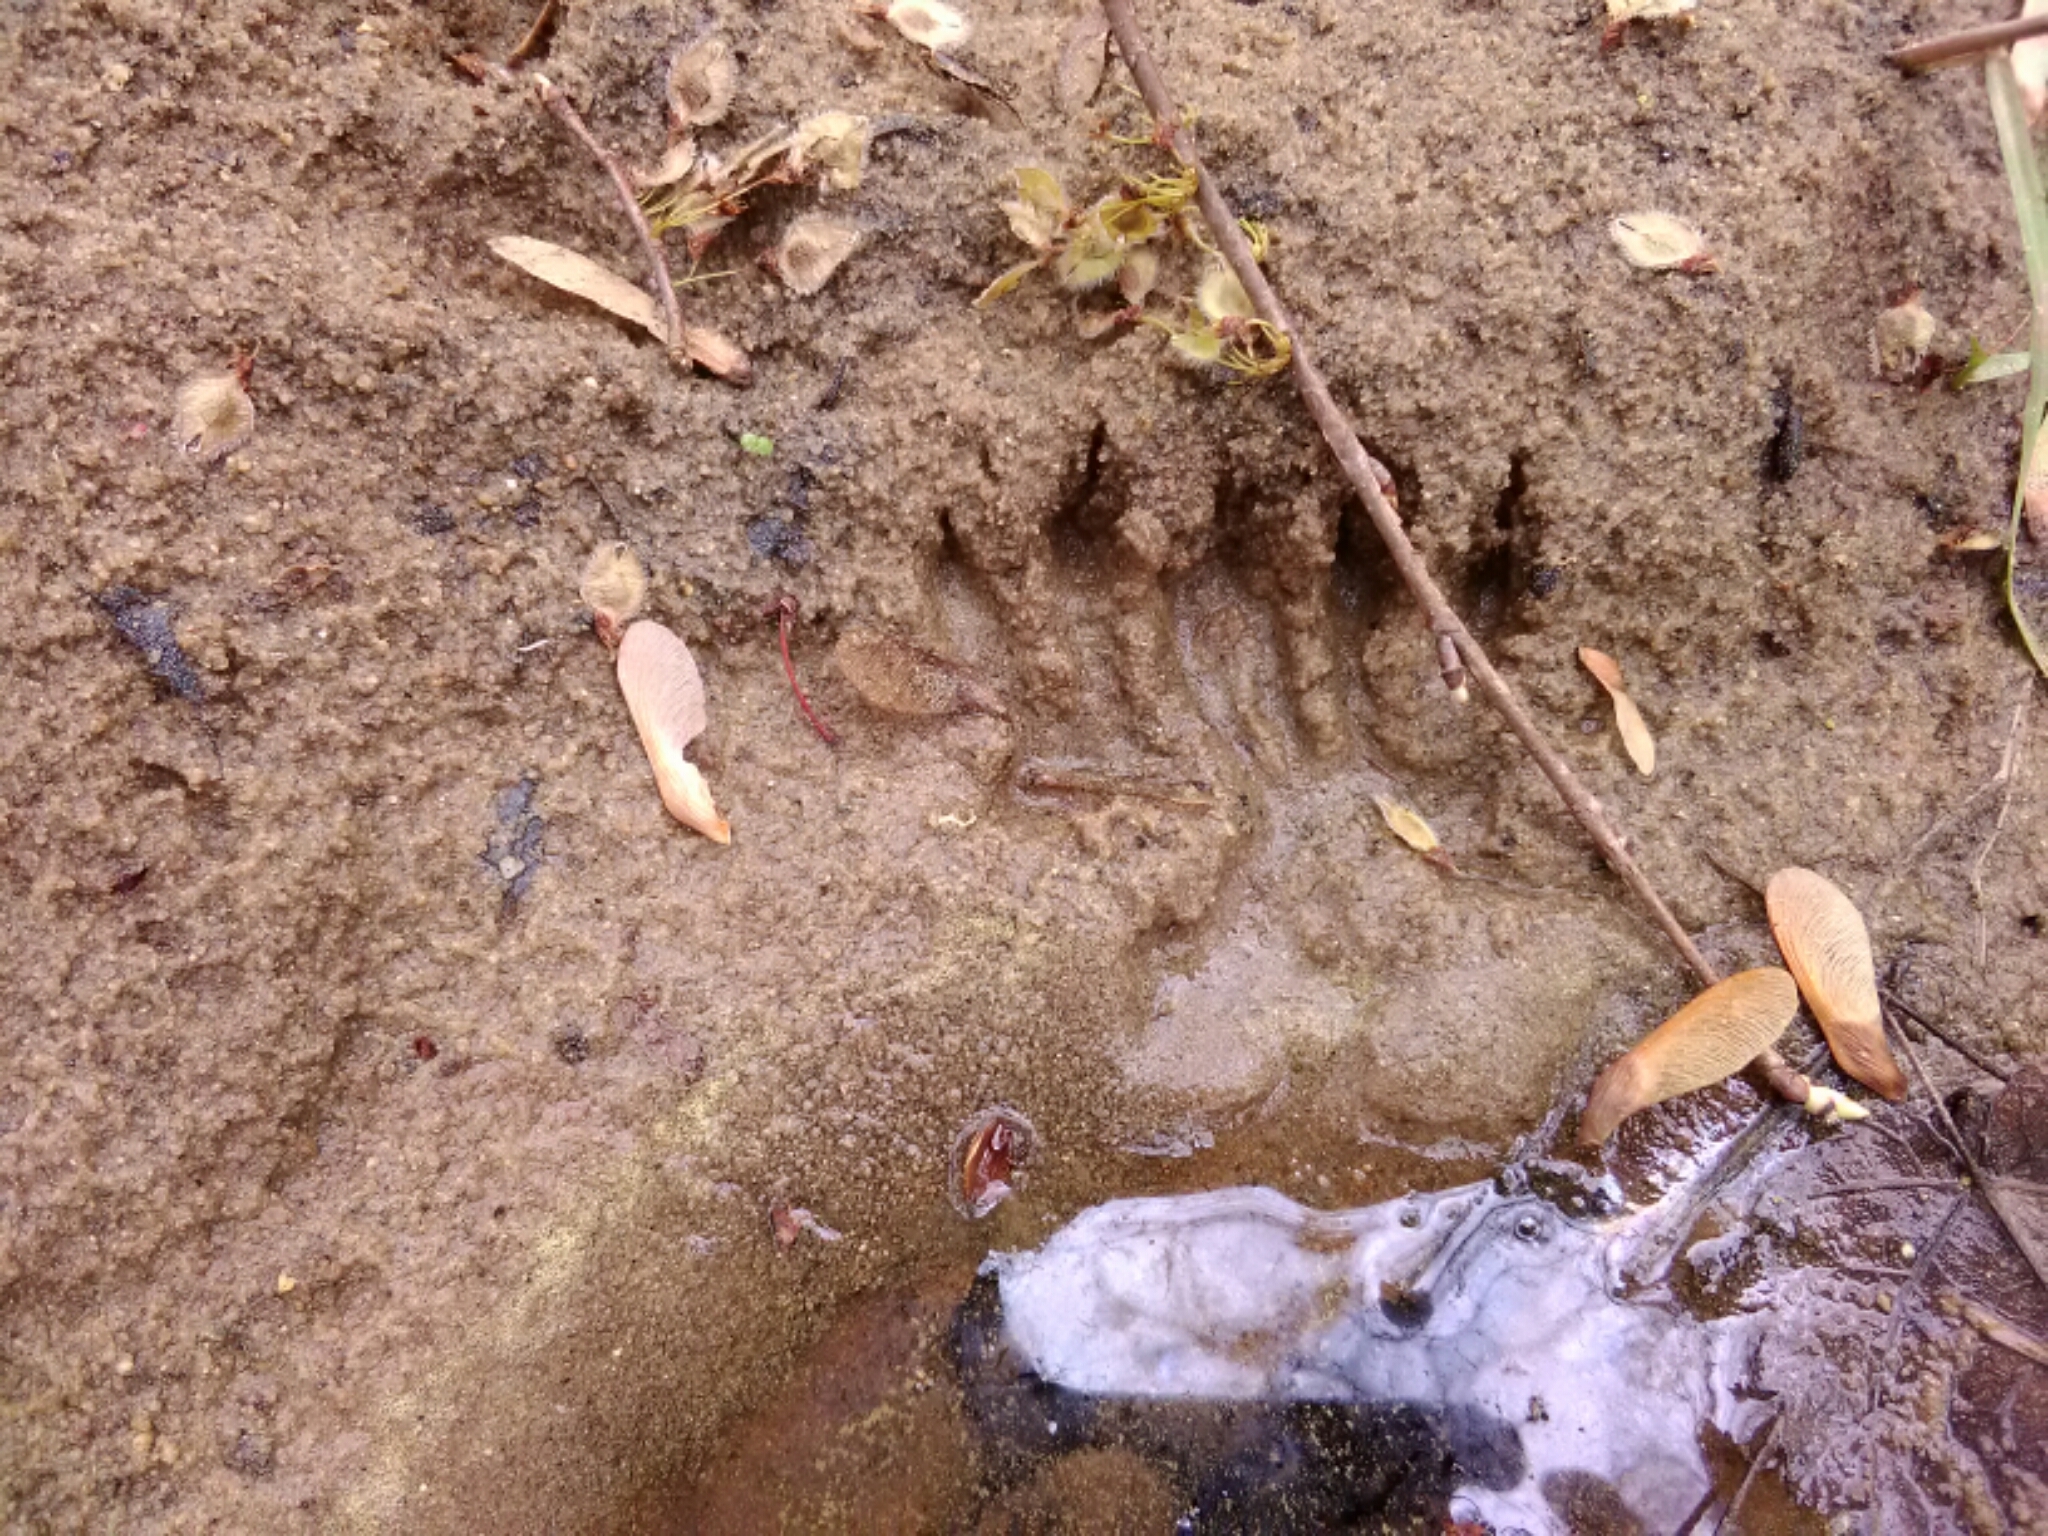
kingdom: Animalia
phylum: Chordata
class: Mammalia
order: Carnivora
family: Procyonidae
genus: Procyon
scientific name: Procyon lotor
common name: Raccoon
